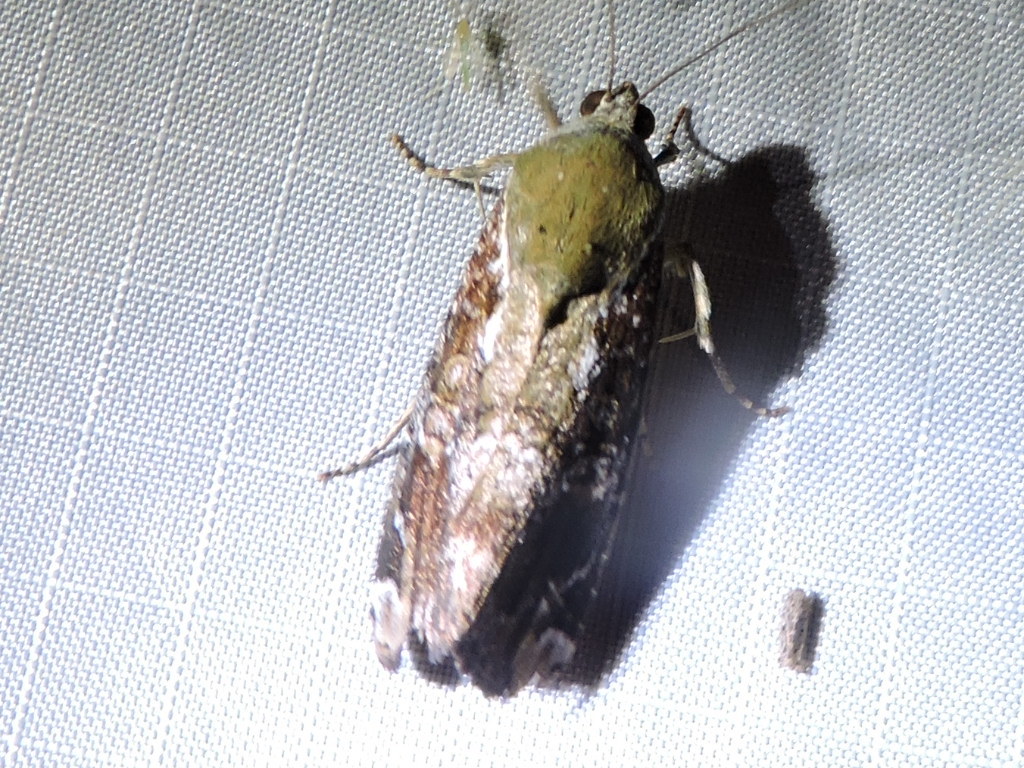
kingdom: Animalia
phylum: Arthropoda
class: Insecta
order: Lepidoptera
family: Noctuidae
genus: Magusa
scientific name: Magusa divaricata
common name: Orb narrow-winged moth
